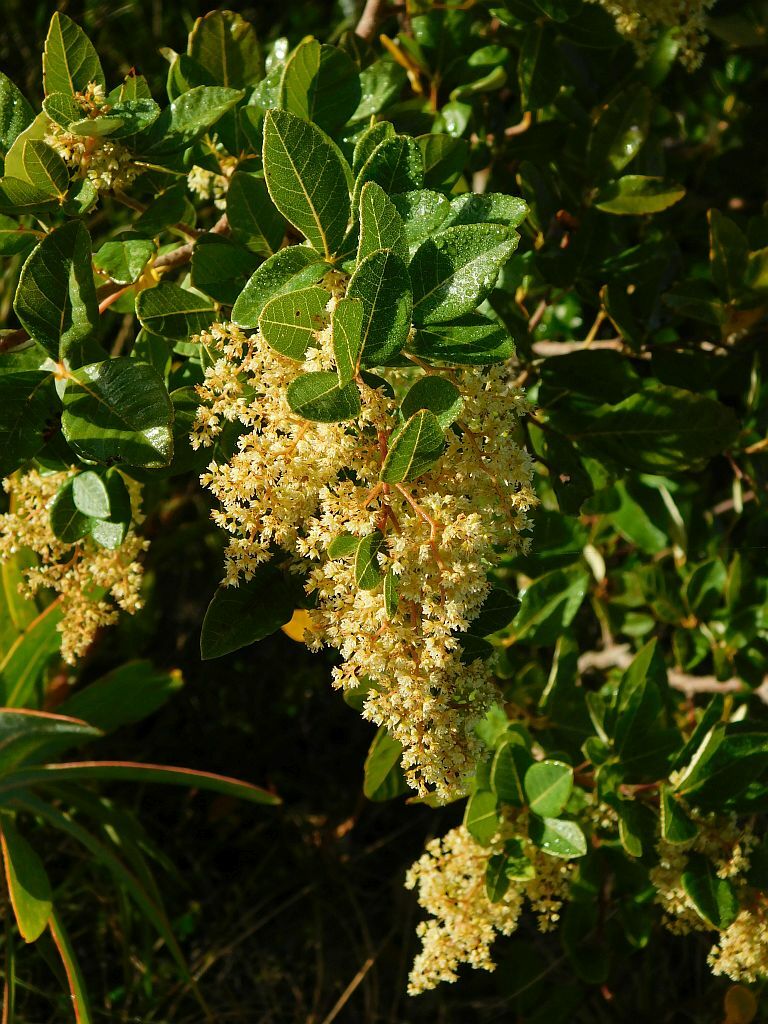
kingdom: Plantae
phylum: Tracheophyta
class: Magnoliopsida
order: Sapindales
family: Anacardiaceae
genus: Searsia
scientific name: Searsia tomentosa
